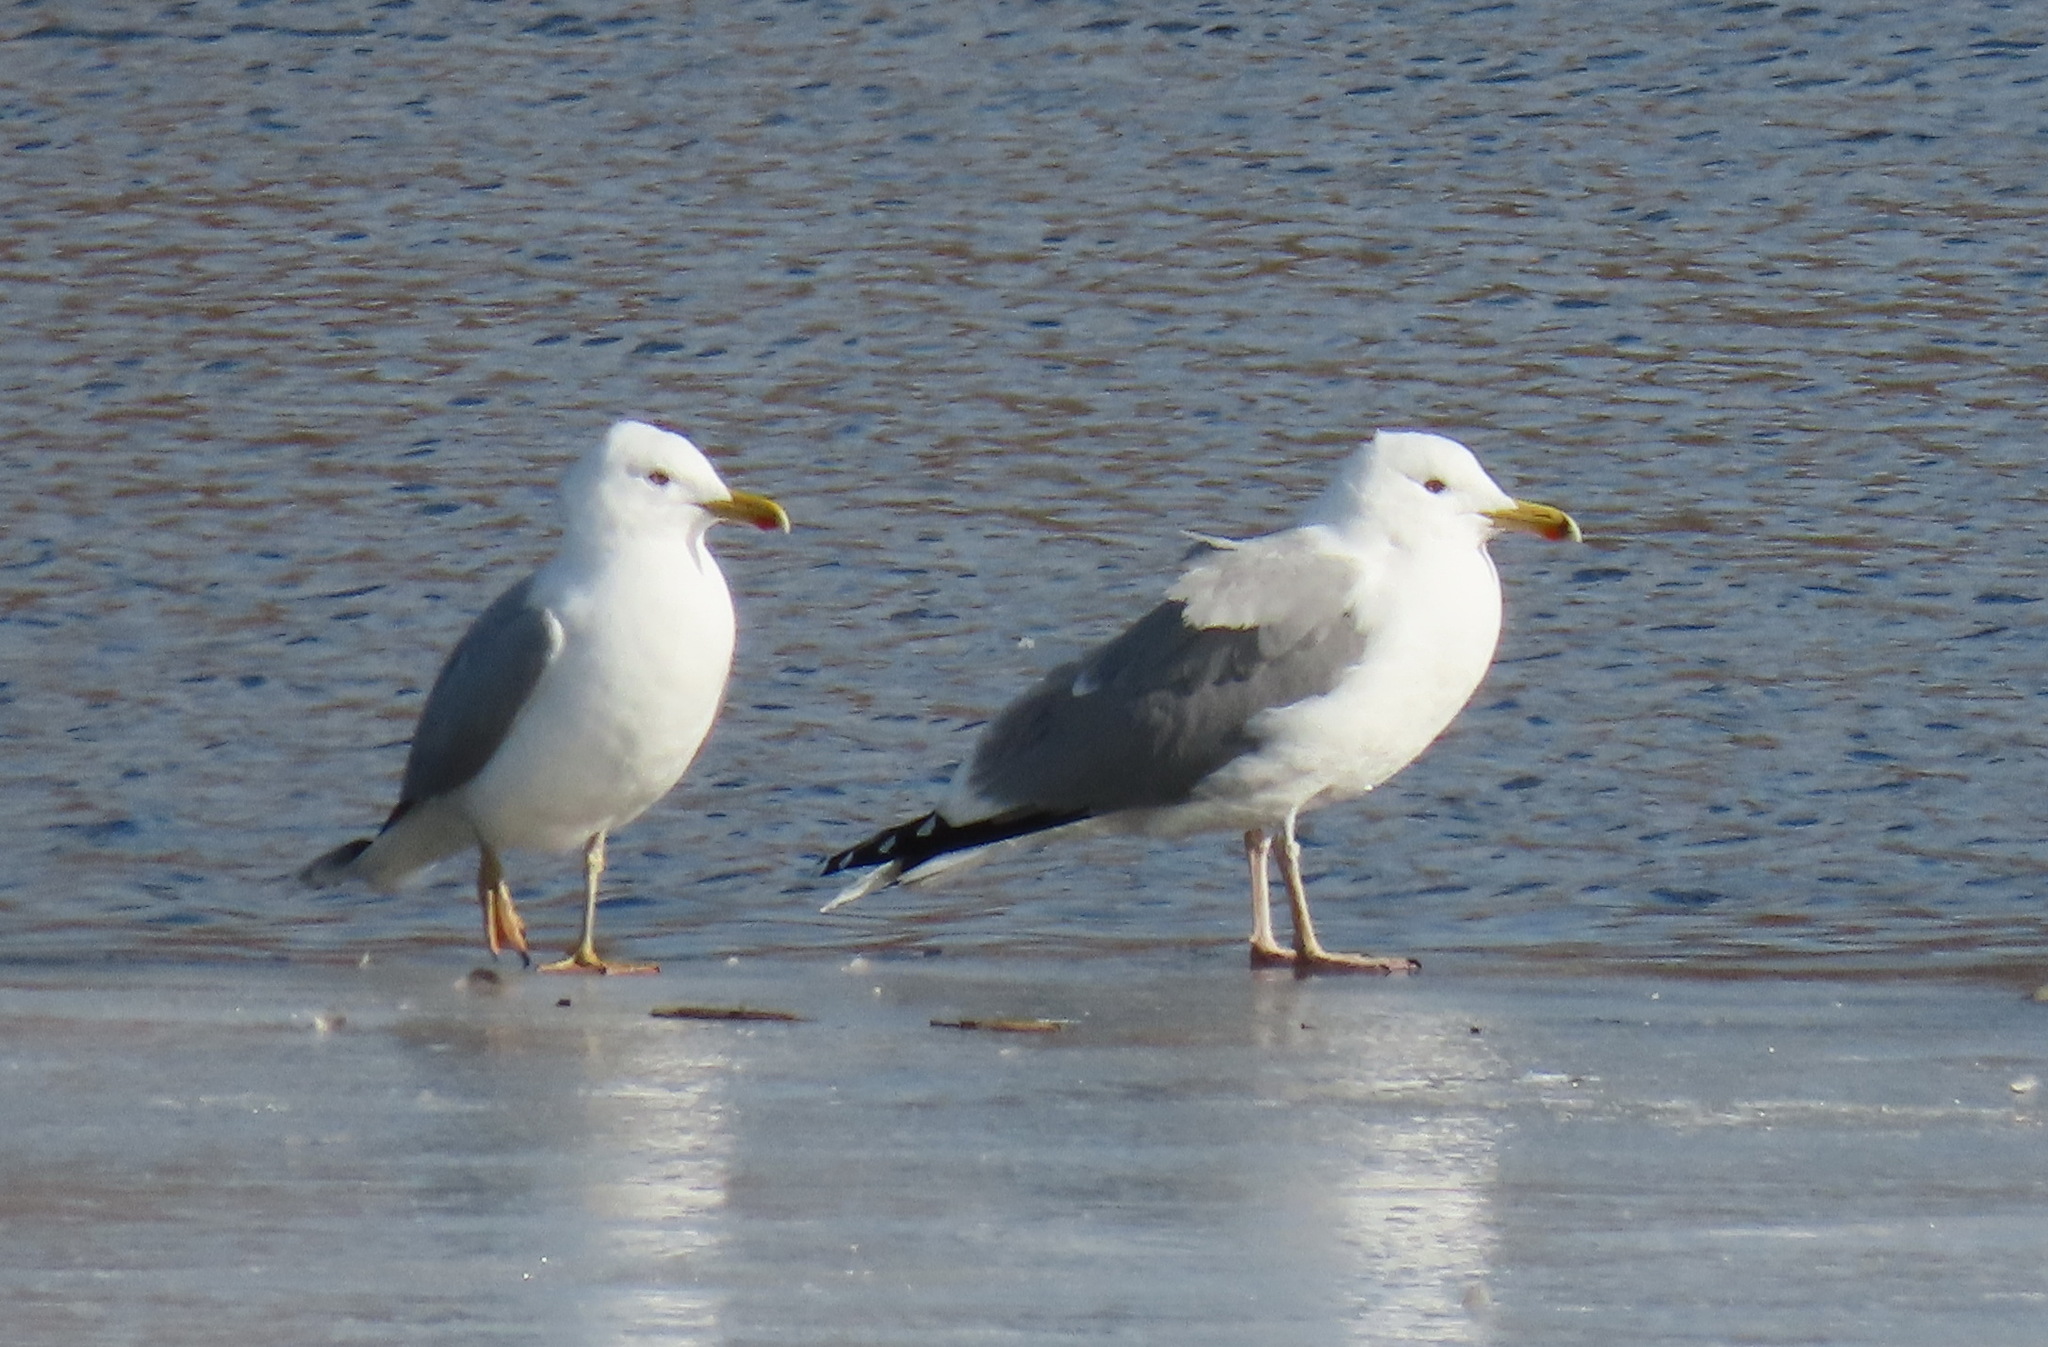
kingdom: Animalia
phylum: Chordata
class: Aves
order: Charadriiformes
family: Laridae
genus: Larus
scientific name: Larus argentatus
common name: Herring gull
